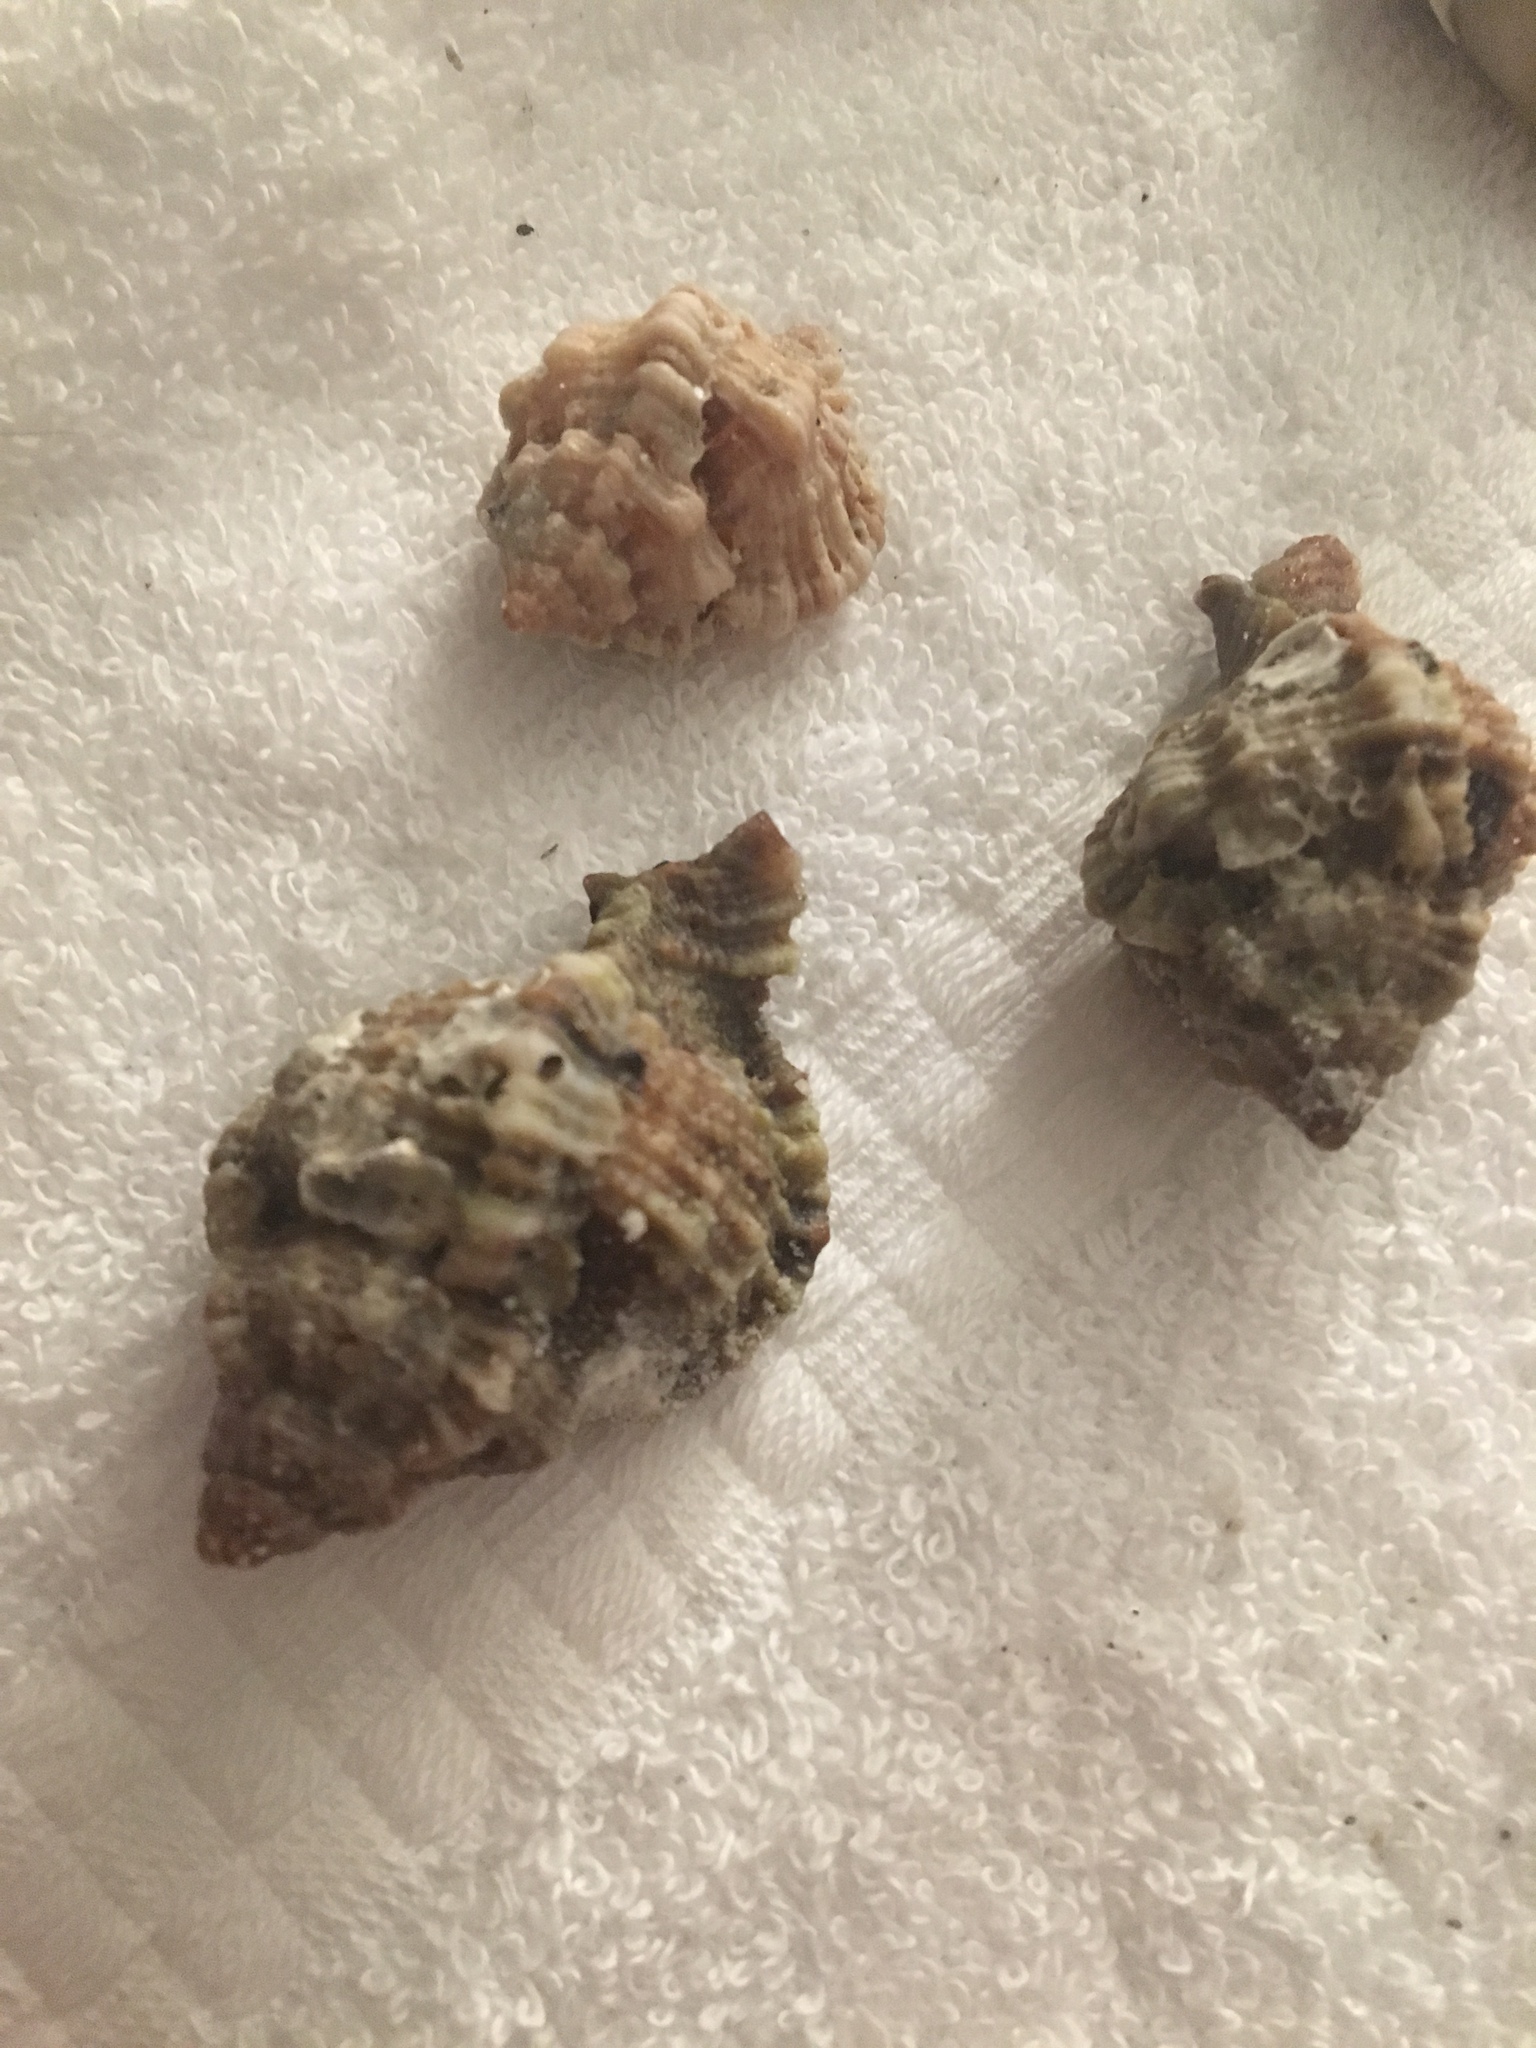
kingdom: Animalia
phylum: Mollusca
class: Gastropoda
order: Neogastropoda
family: Muricidae
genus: Phyllonotus
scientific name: Phyllonotus pomum
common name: Apple murex
